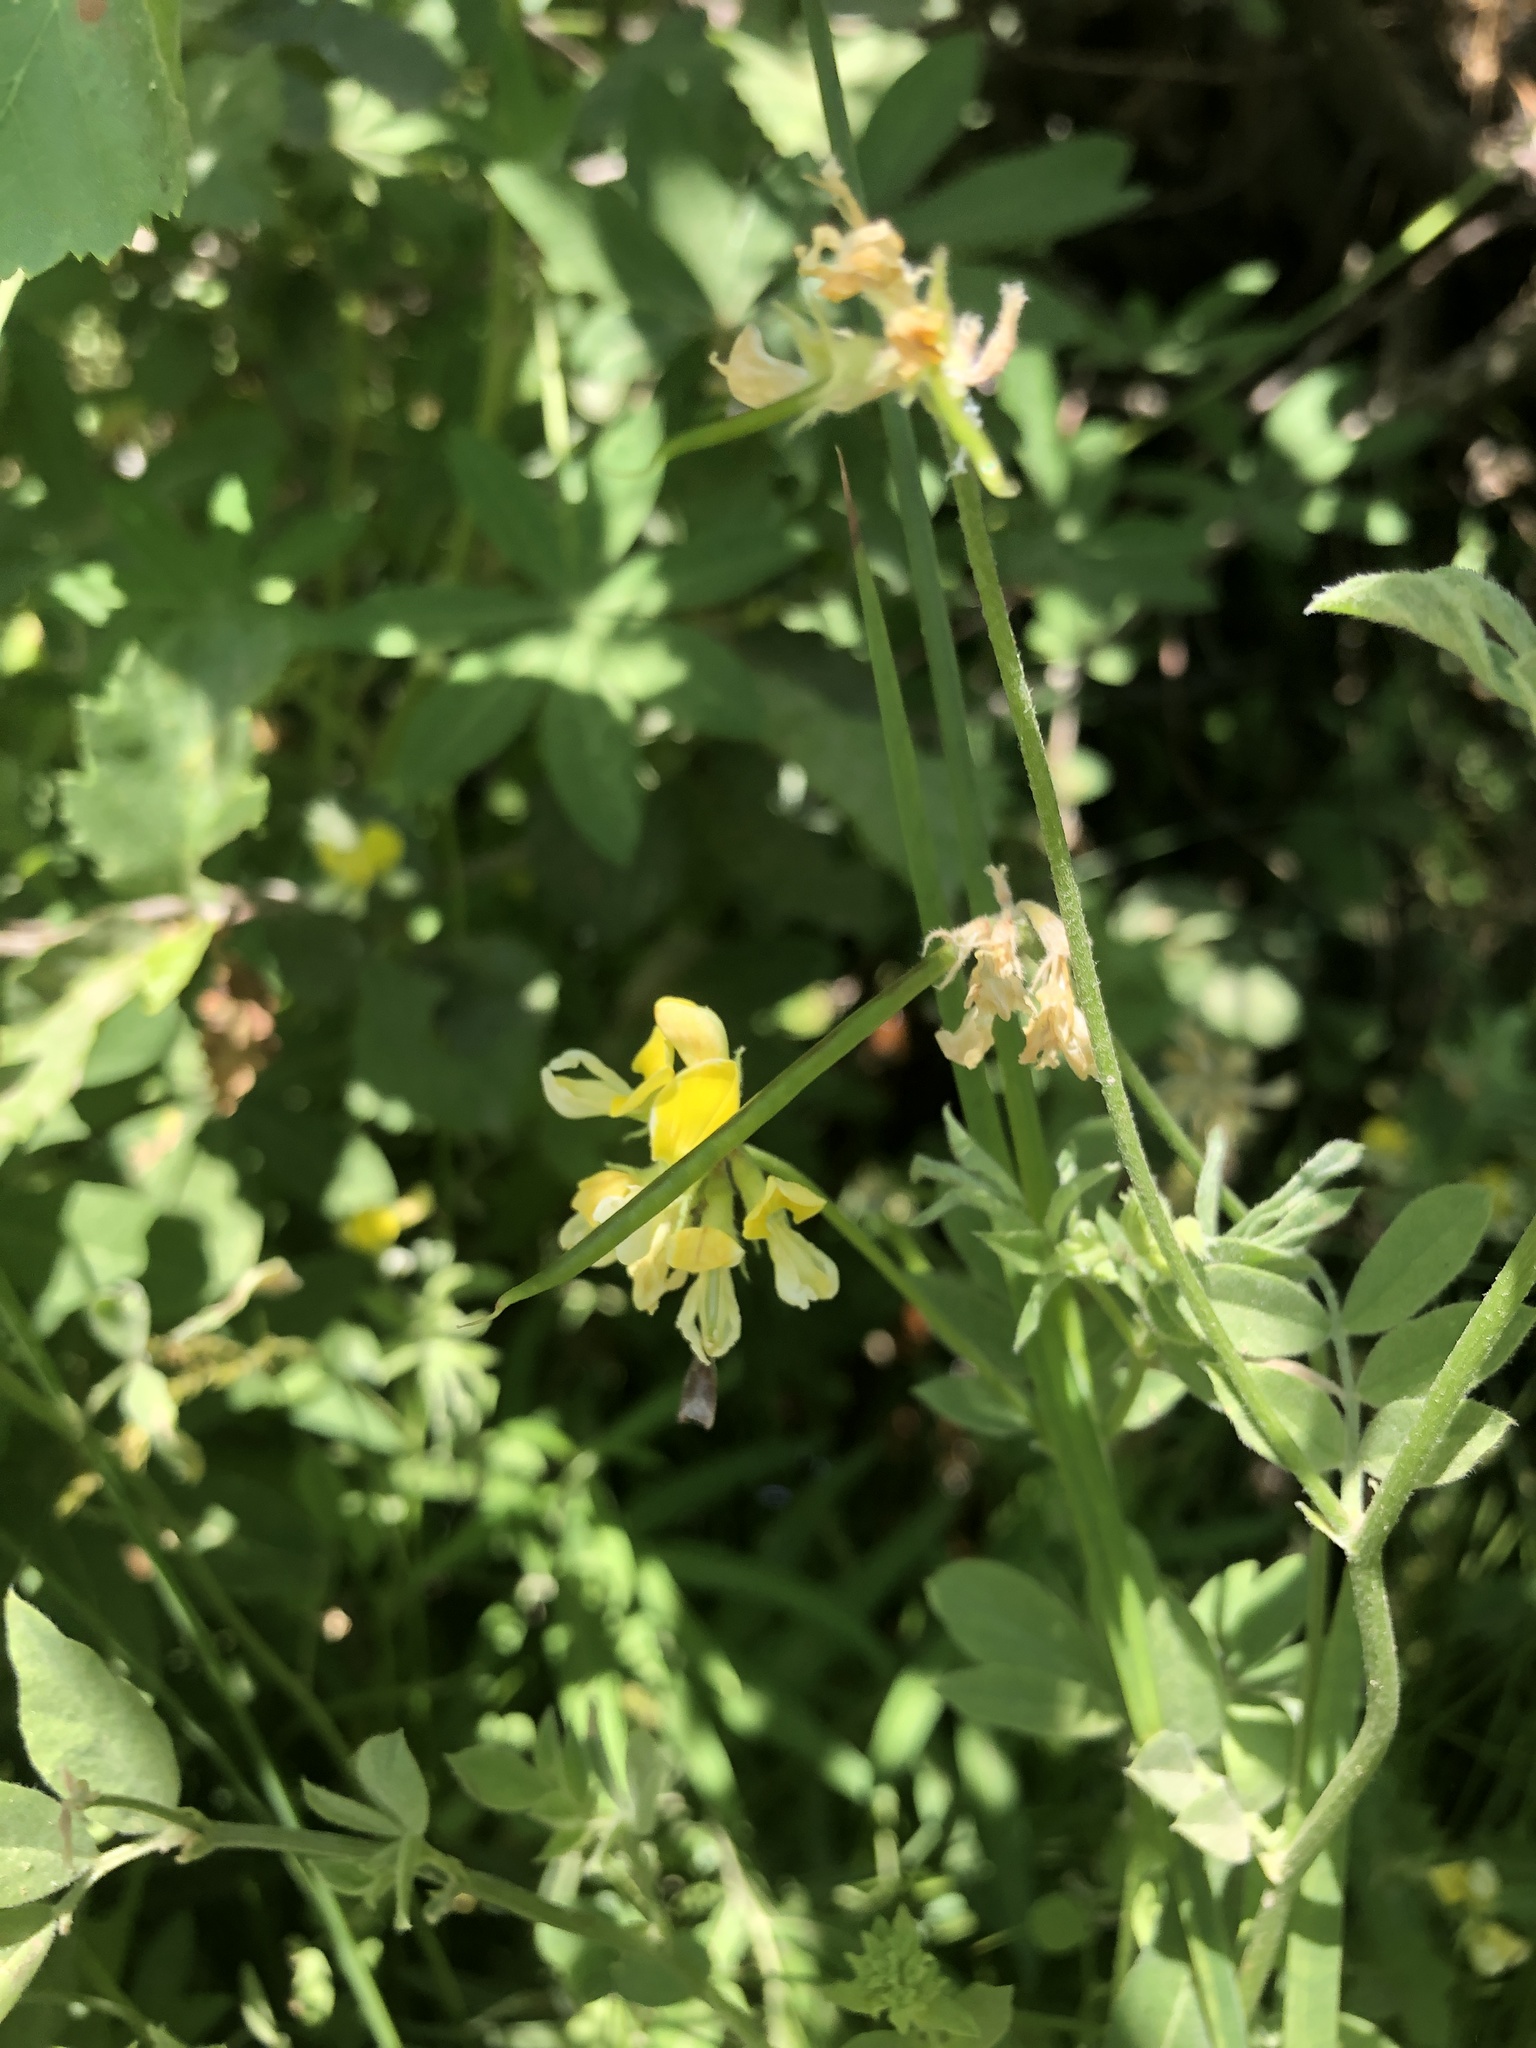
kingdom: Plantae
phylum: Tracheophyta
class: Magnoliopsida
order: Fabales
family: Fabaceae
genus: Hosackia
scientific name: Hosackia oblongifolia
